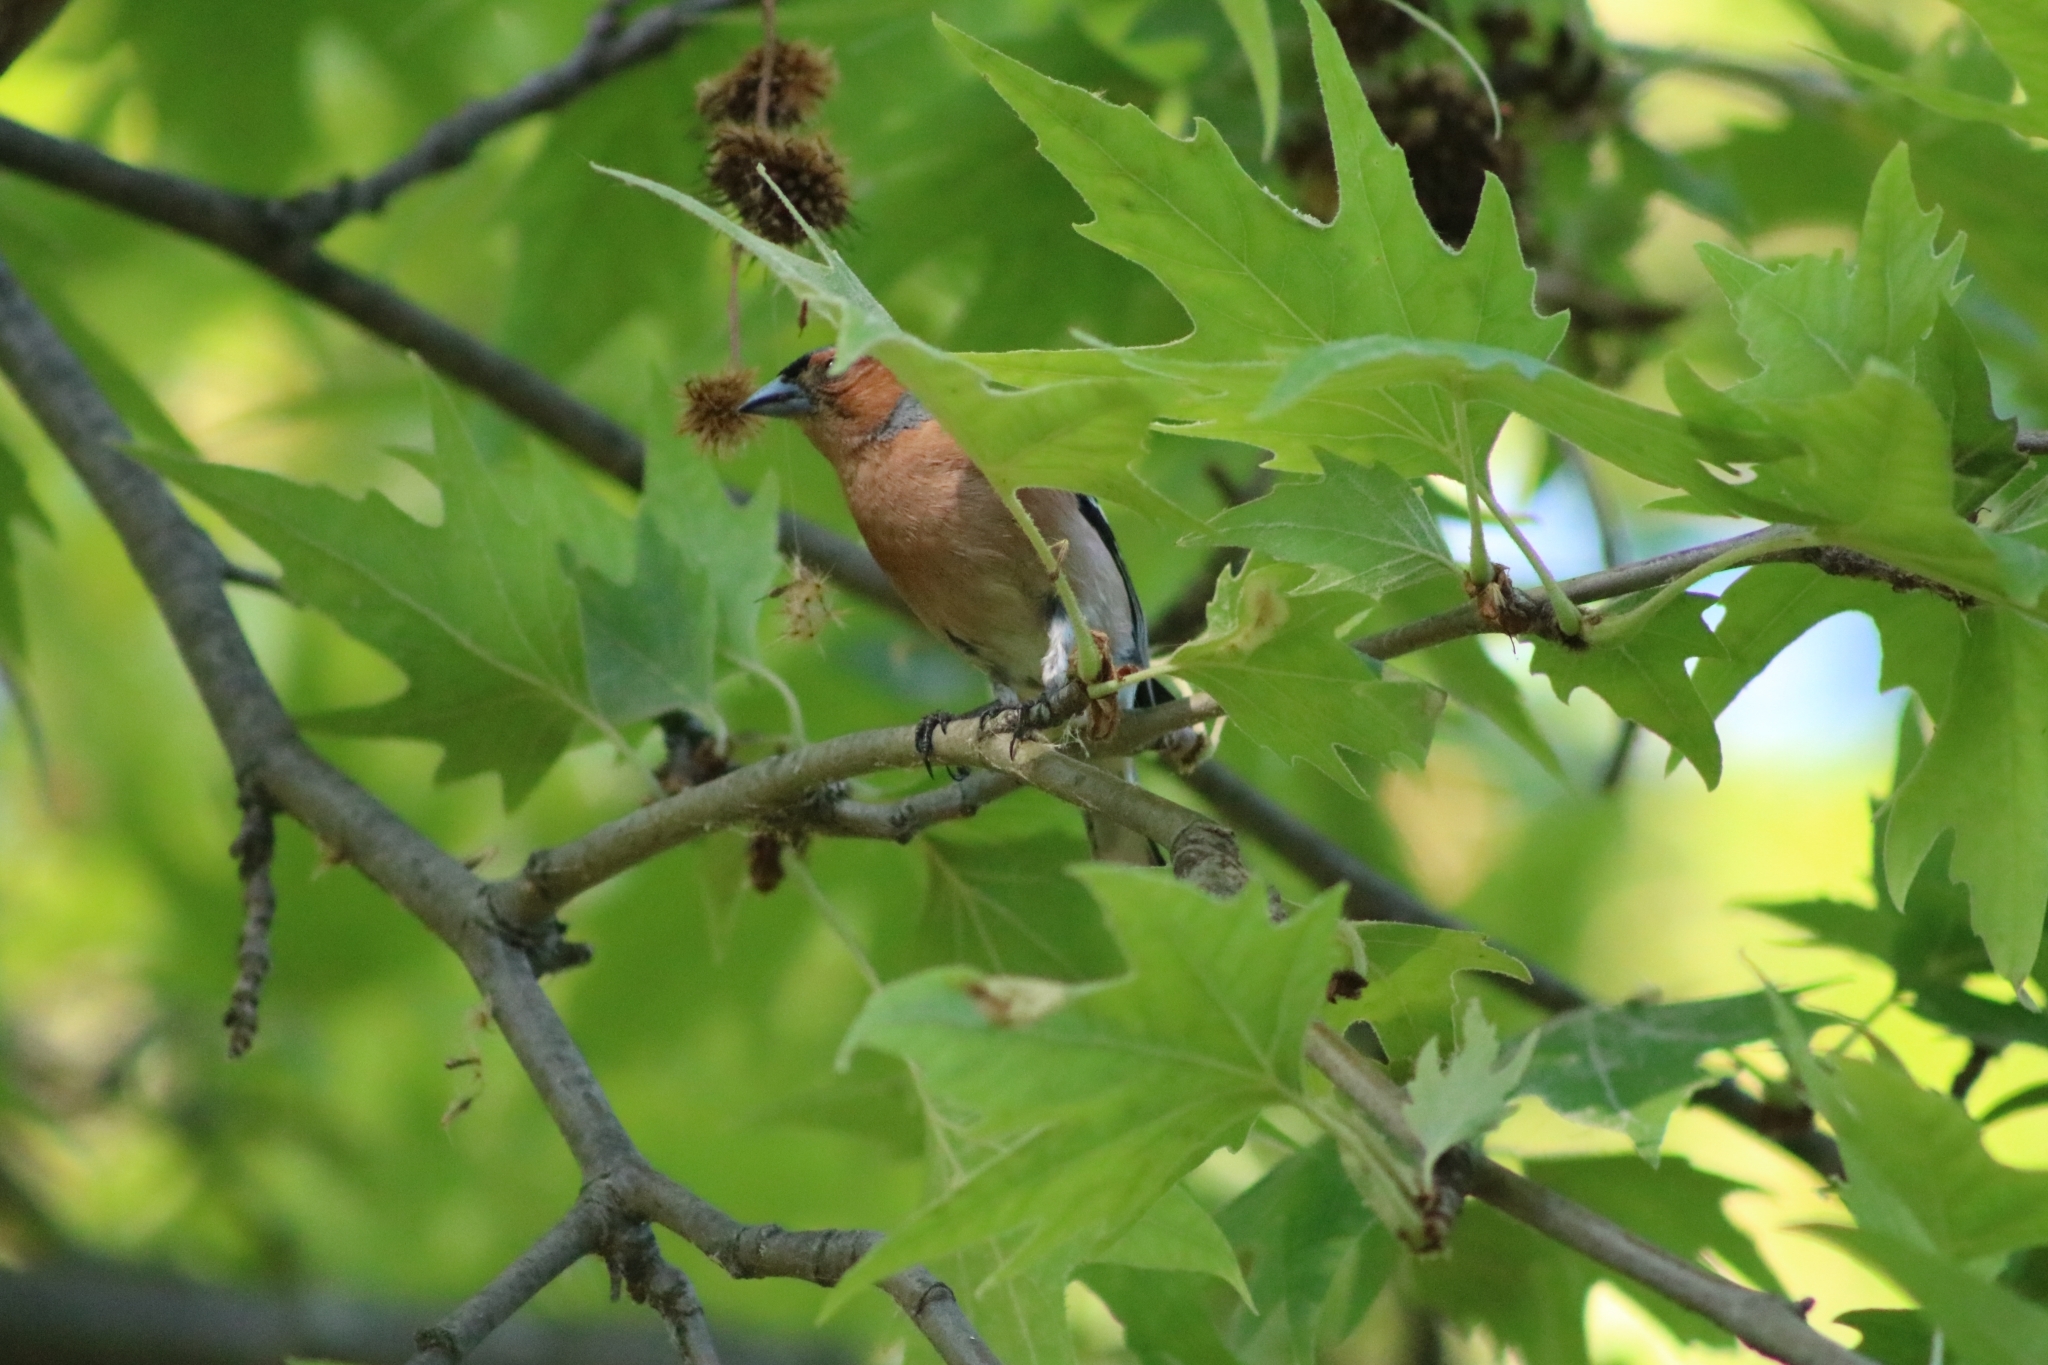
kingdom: Animalia
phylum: Chordata
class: Aves
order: Passeriformes
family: Fringillidae
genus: Fringilla
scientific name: Fringilla coelebs
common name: Common chaffinch
